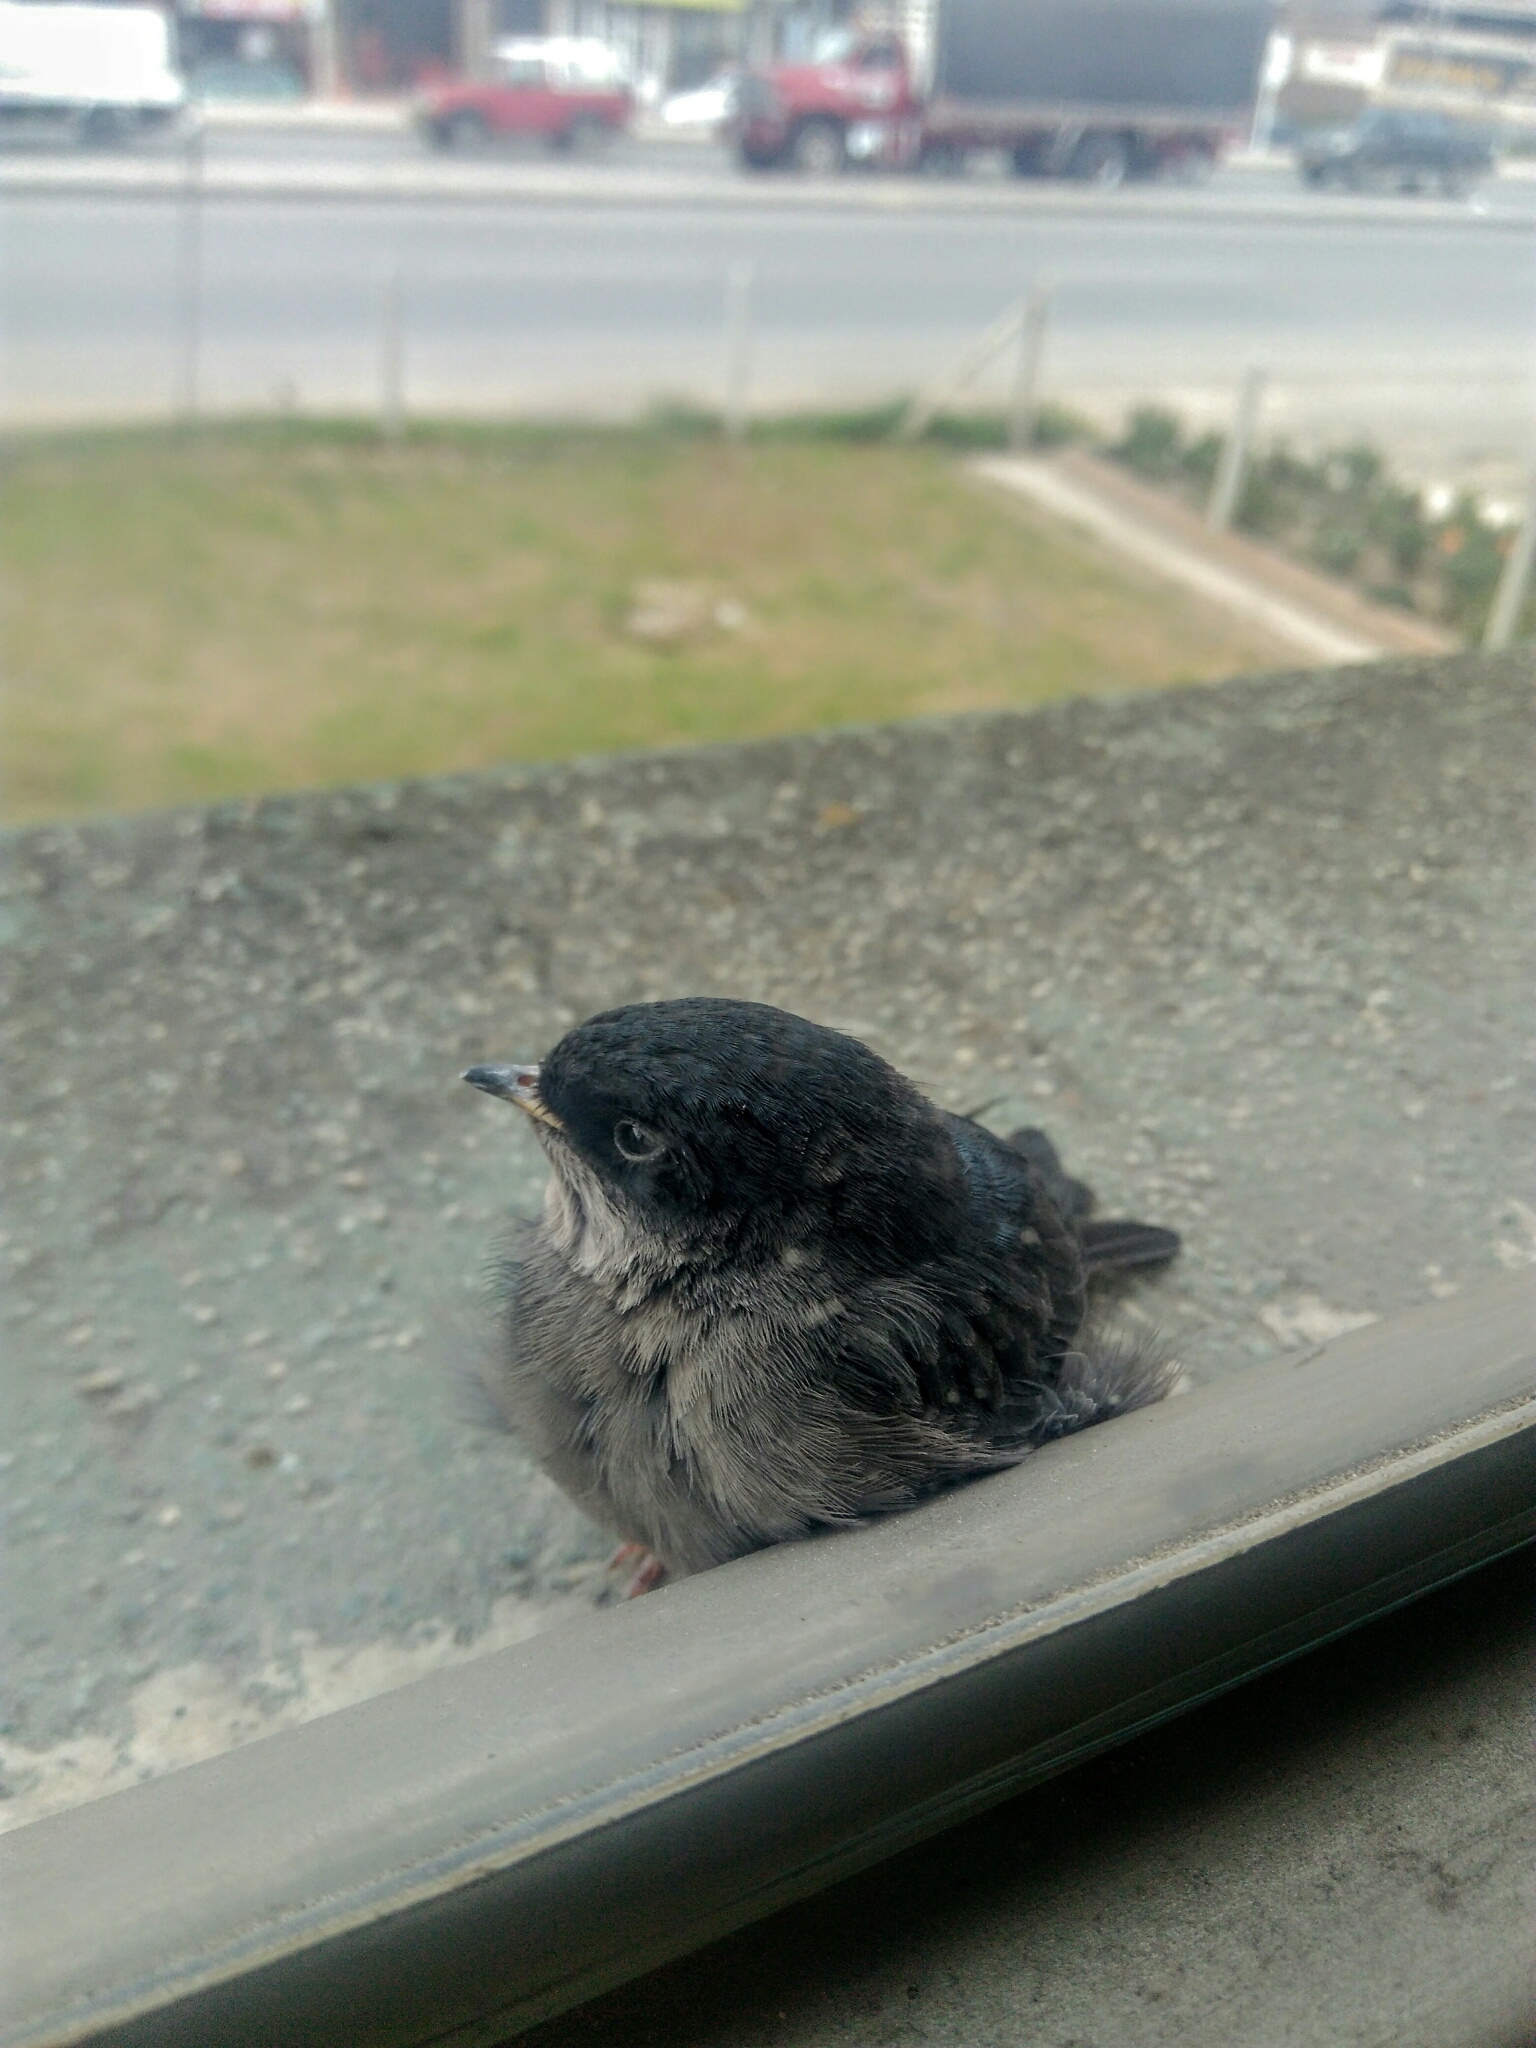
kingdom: Animalia
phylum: Chordata
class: Aves
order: Passeriformes
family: Hirundinidae
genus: Notiochelidon
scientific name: Notiochelidon murina
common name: Brown-bellied swallow
